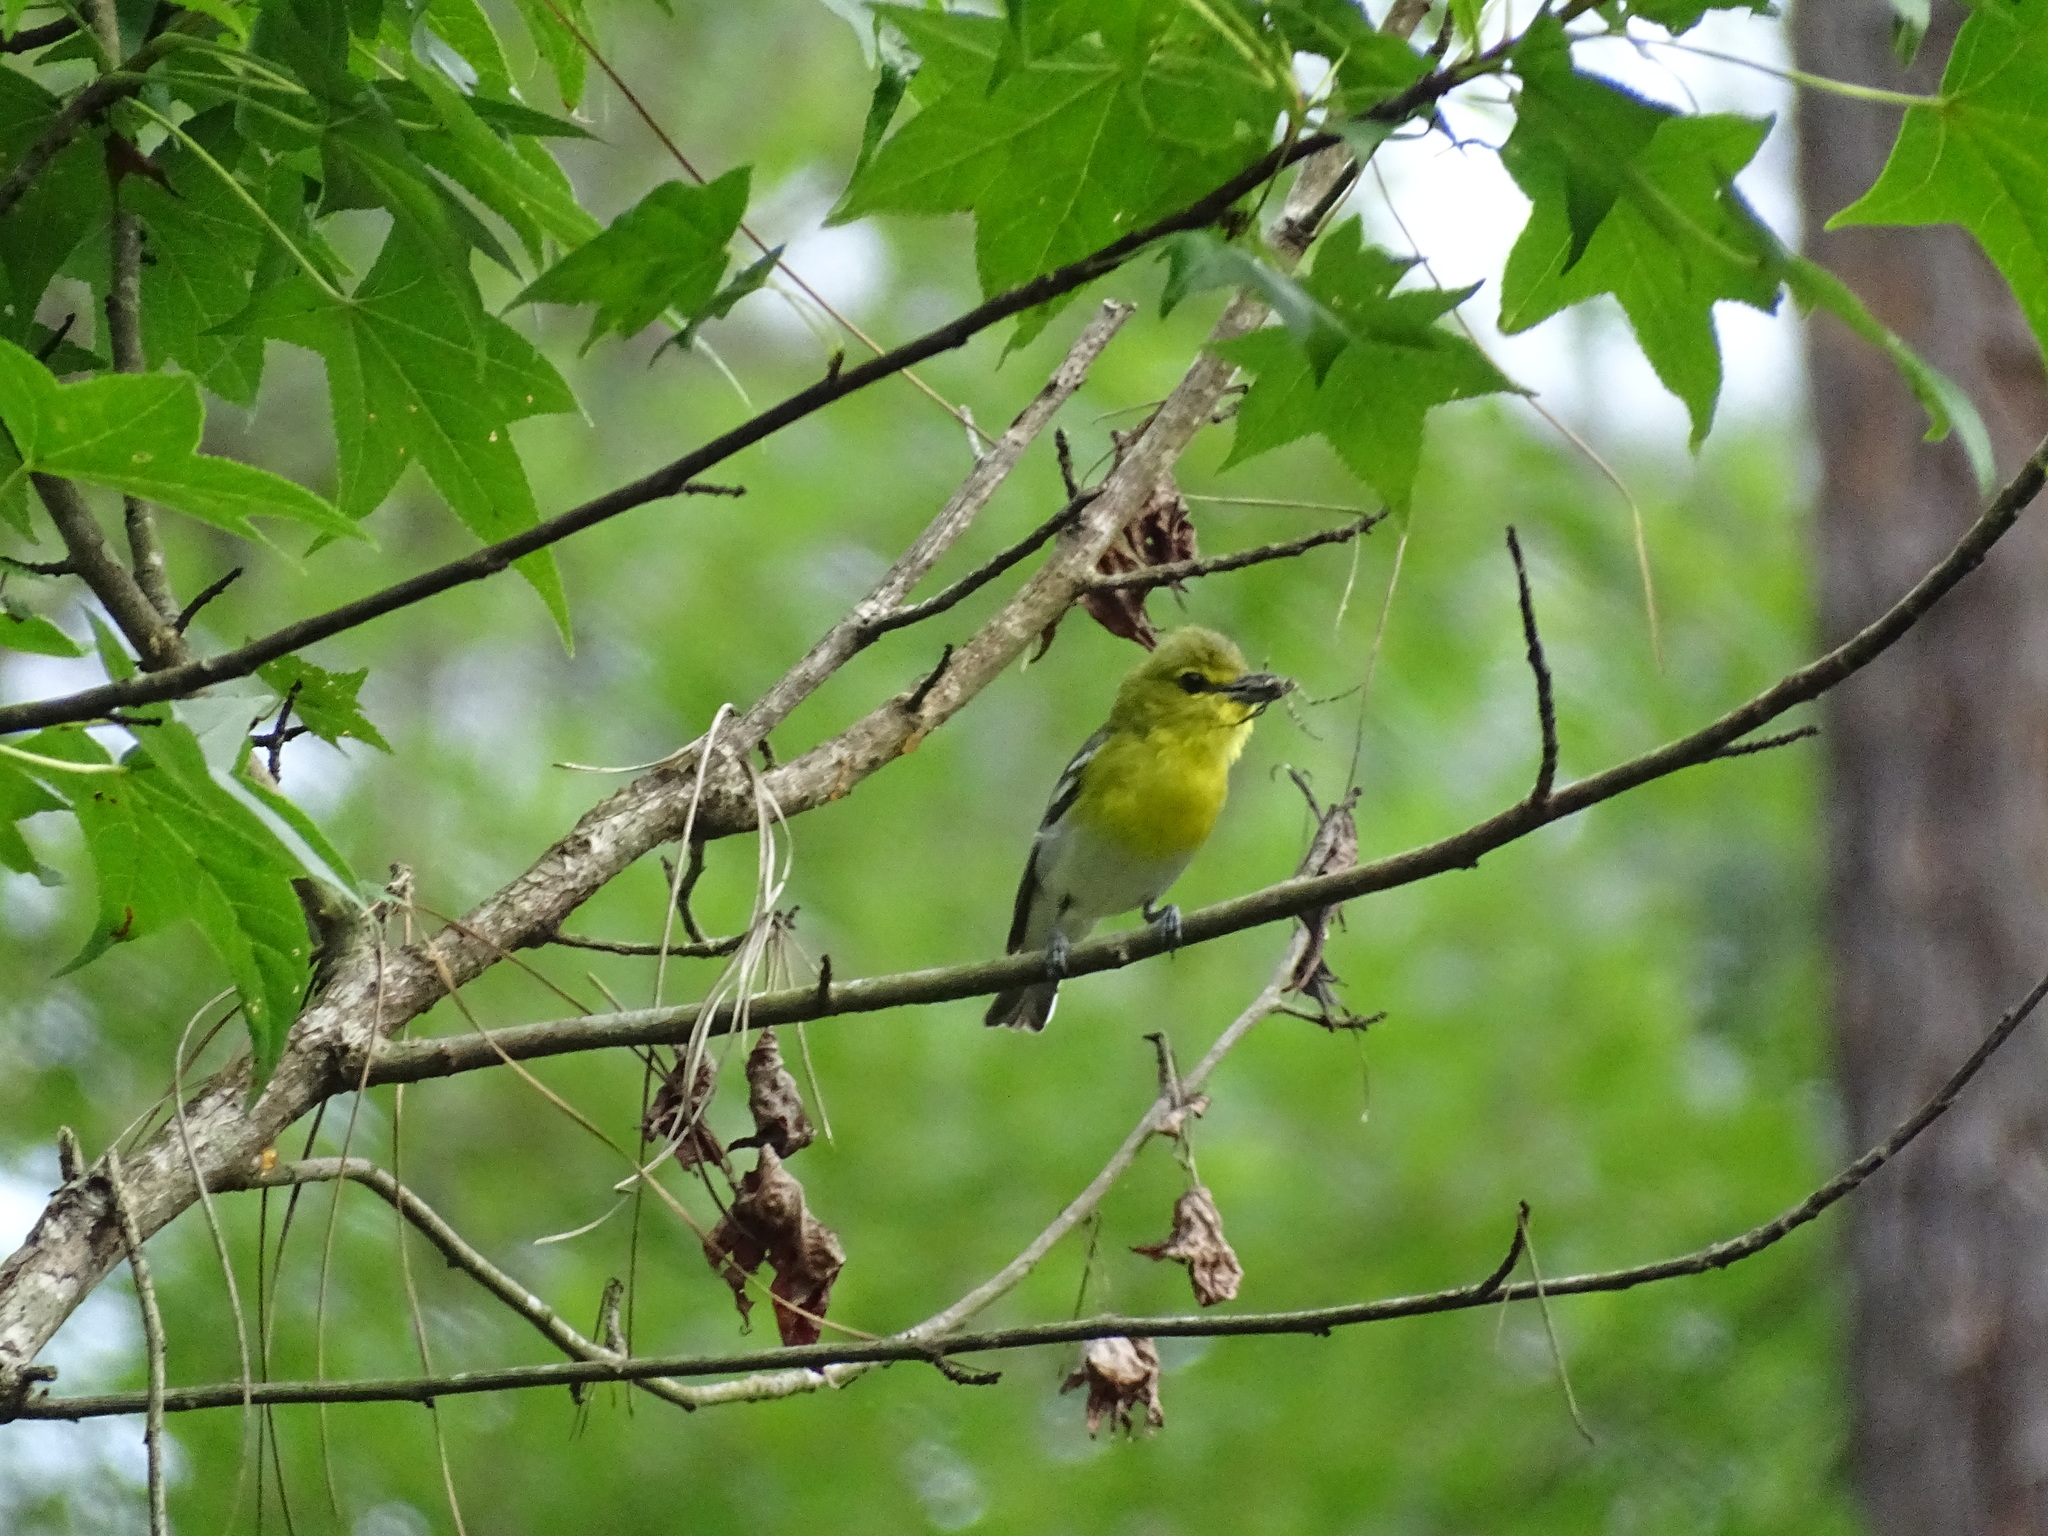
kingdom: Animalia
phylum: Chordata
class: Aves
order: Passeriformes
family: Vireonidae
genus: Vireo
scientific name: Vireo flavifrons
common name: Yellow-throated vireo
